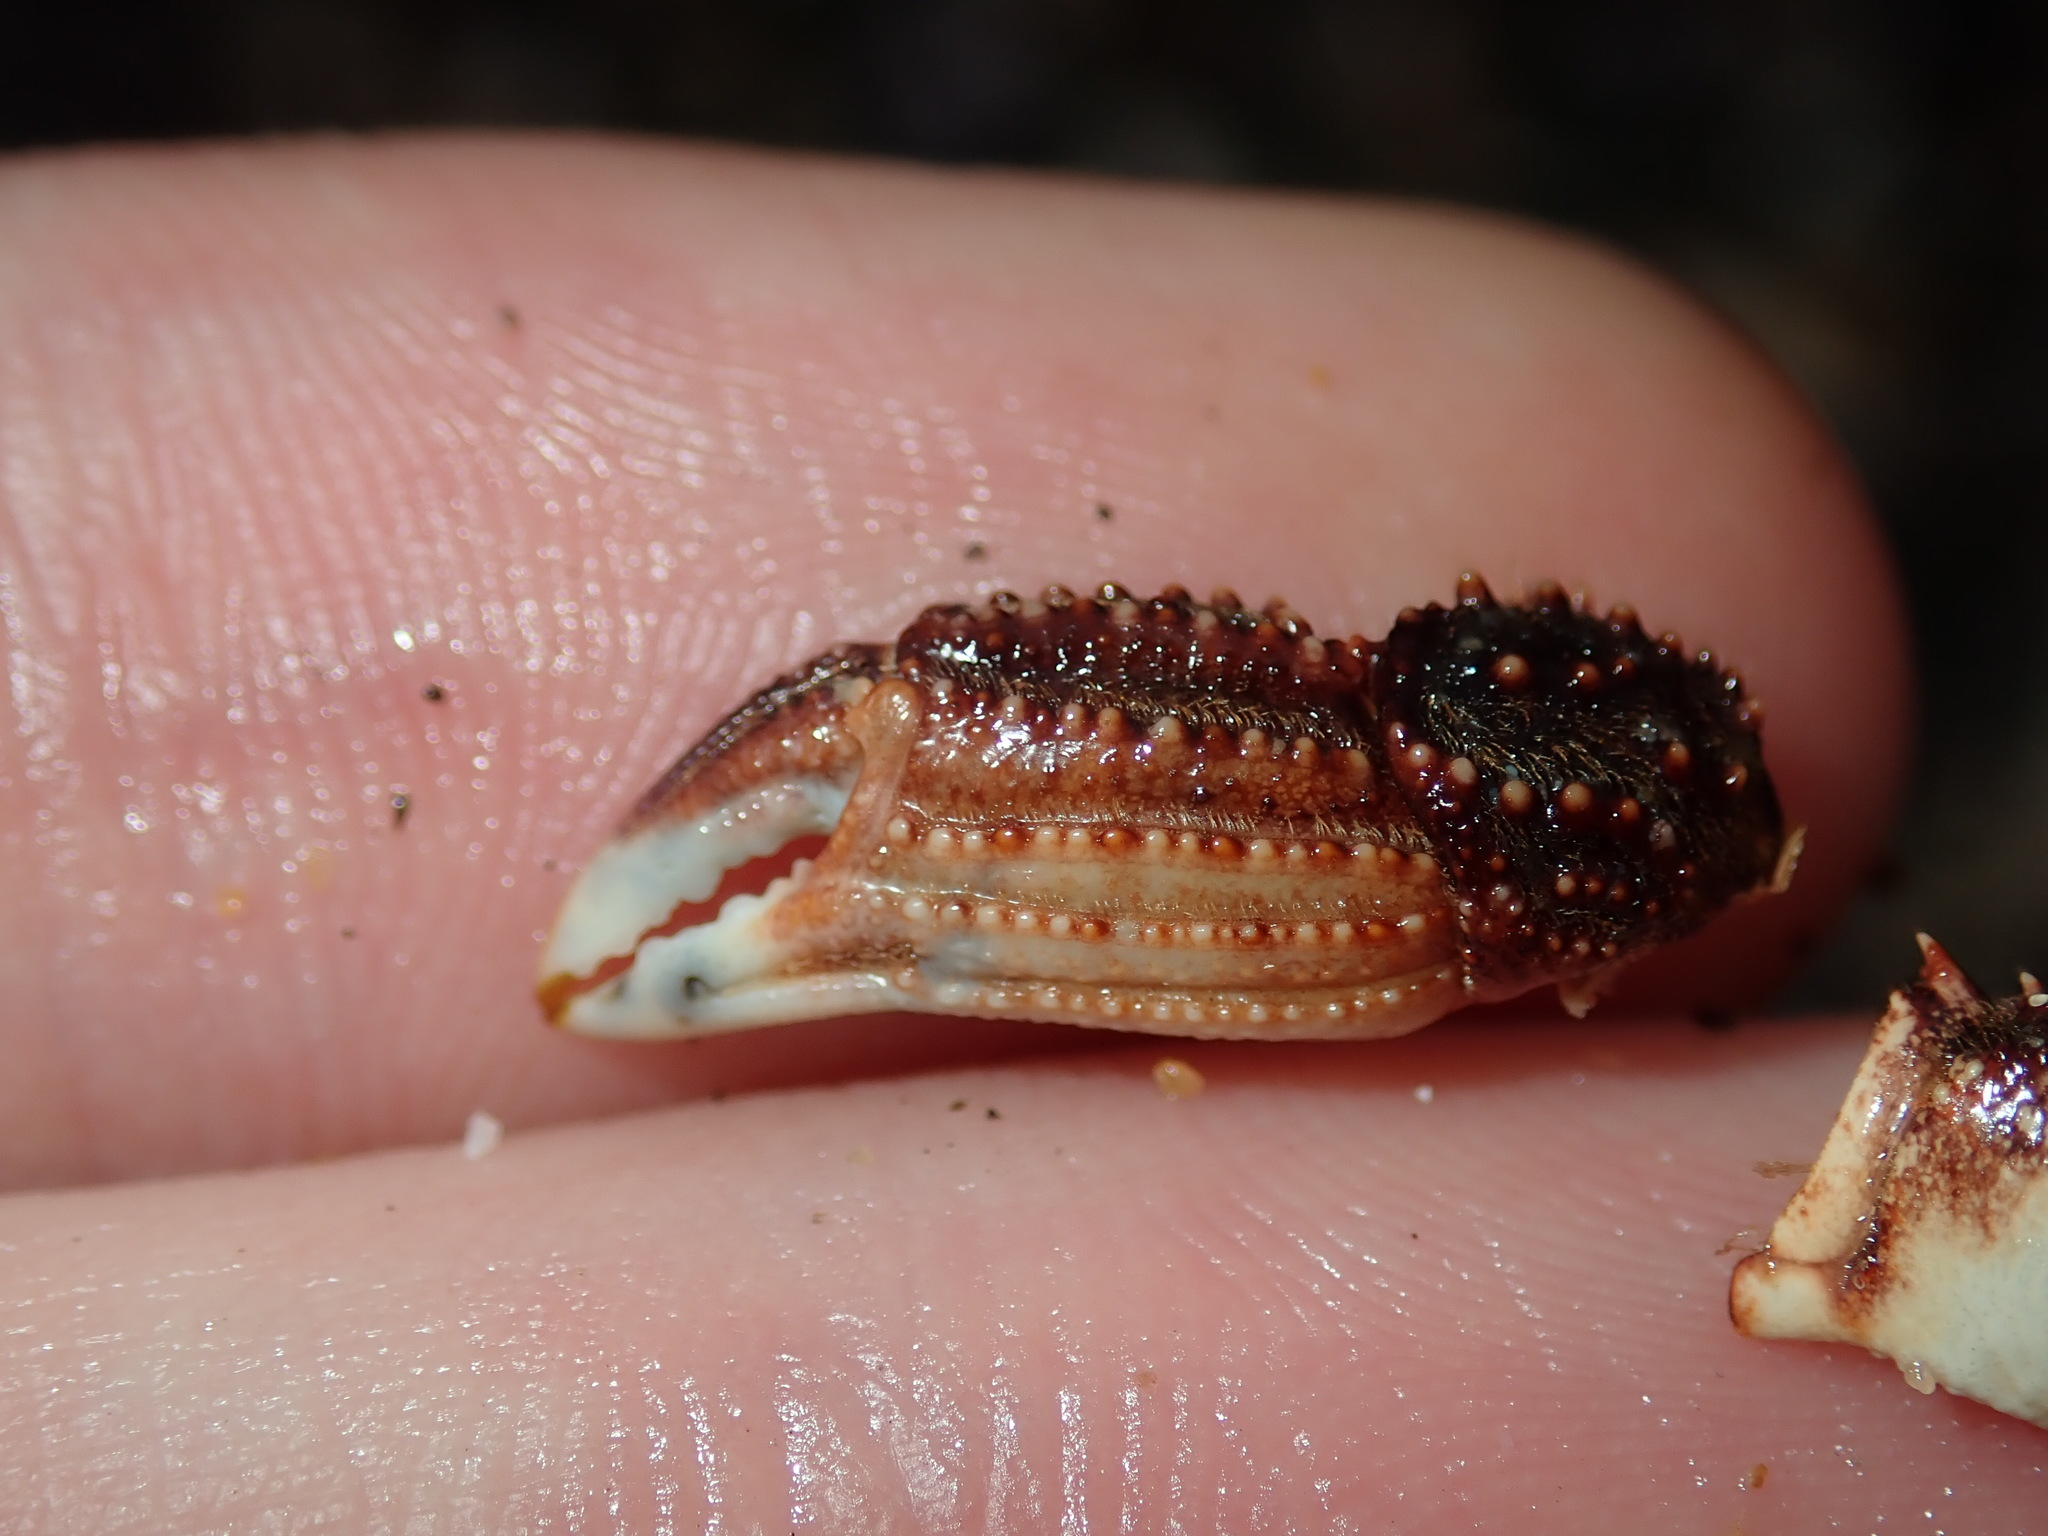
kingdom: Animalia
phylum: Arthropoda
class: Malacostraca
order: Decapoda
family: Plagusiidae
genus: Guinusia
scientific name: Guinusia chabrus
